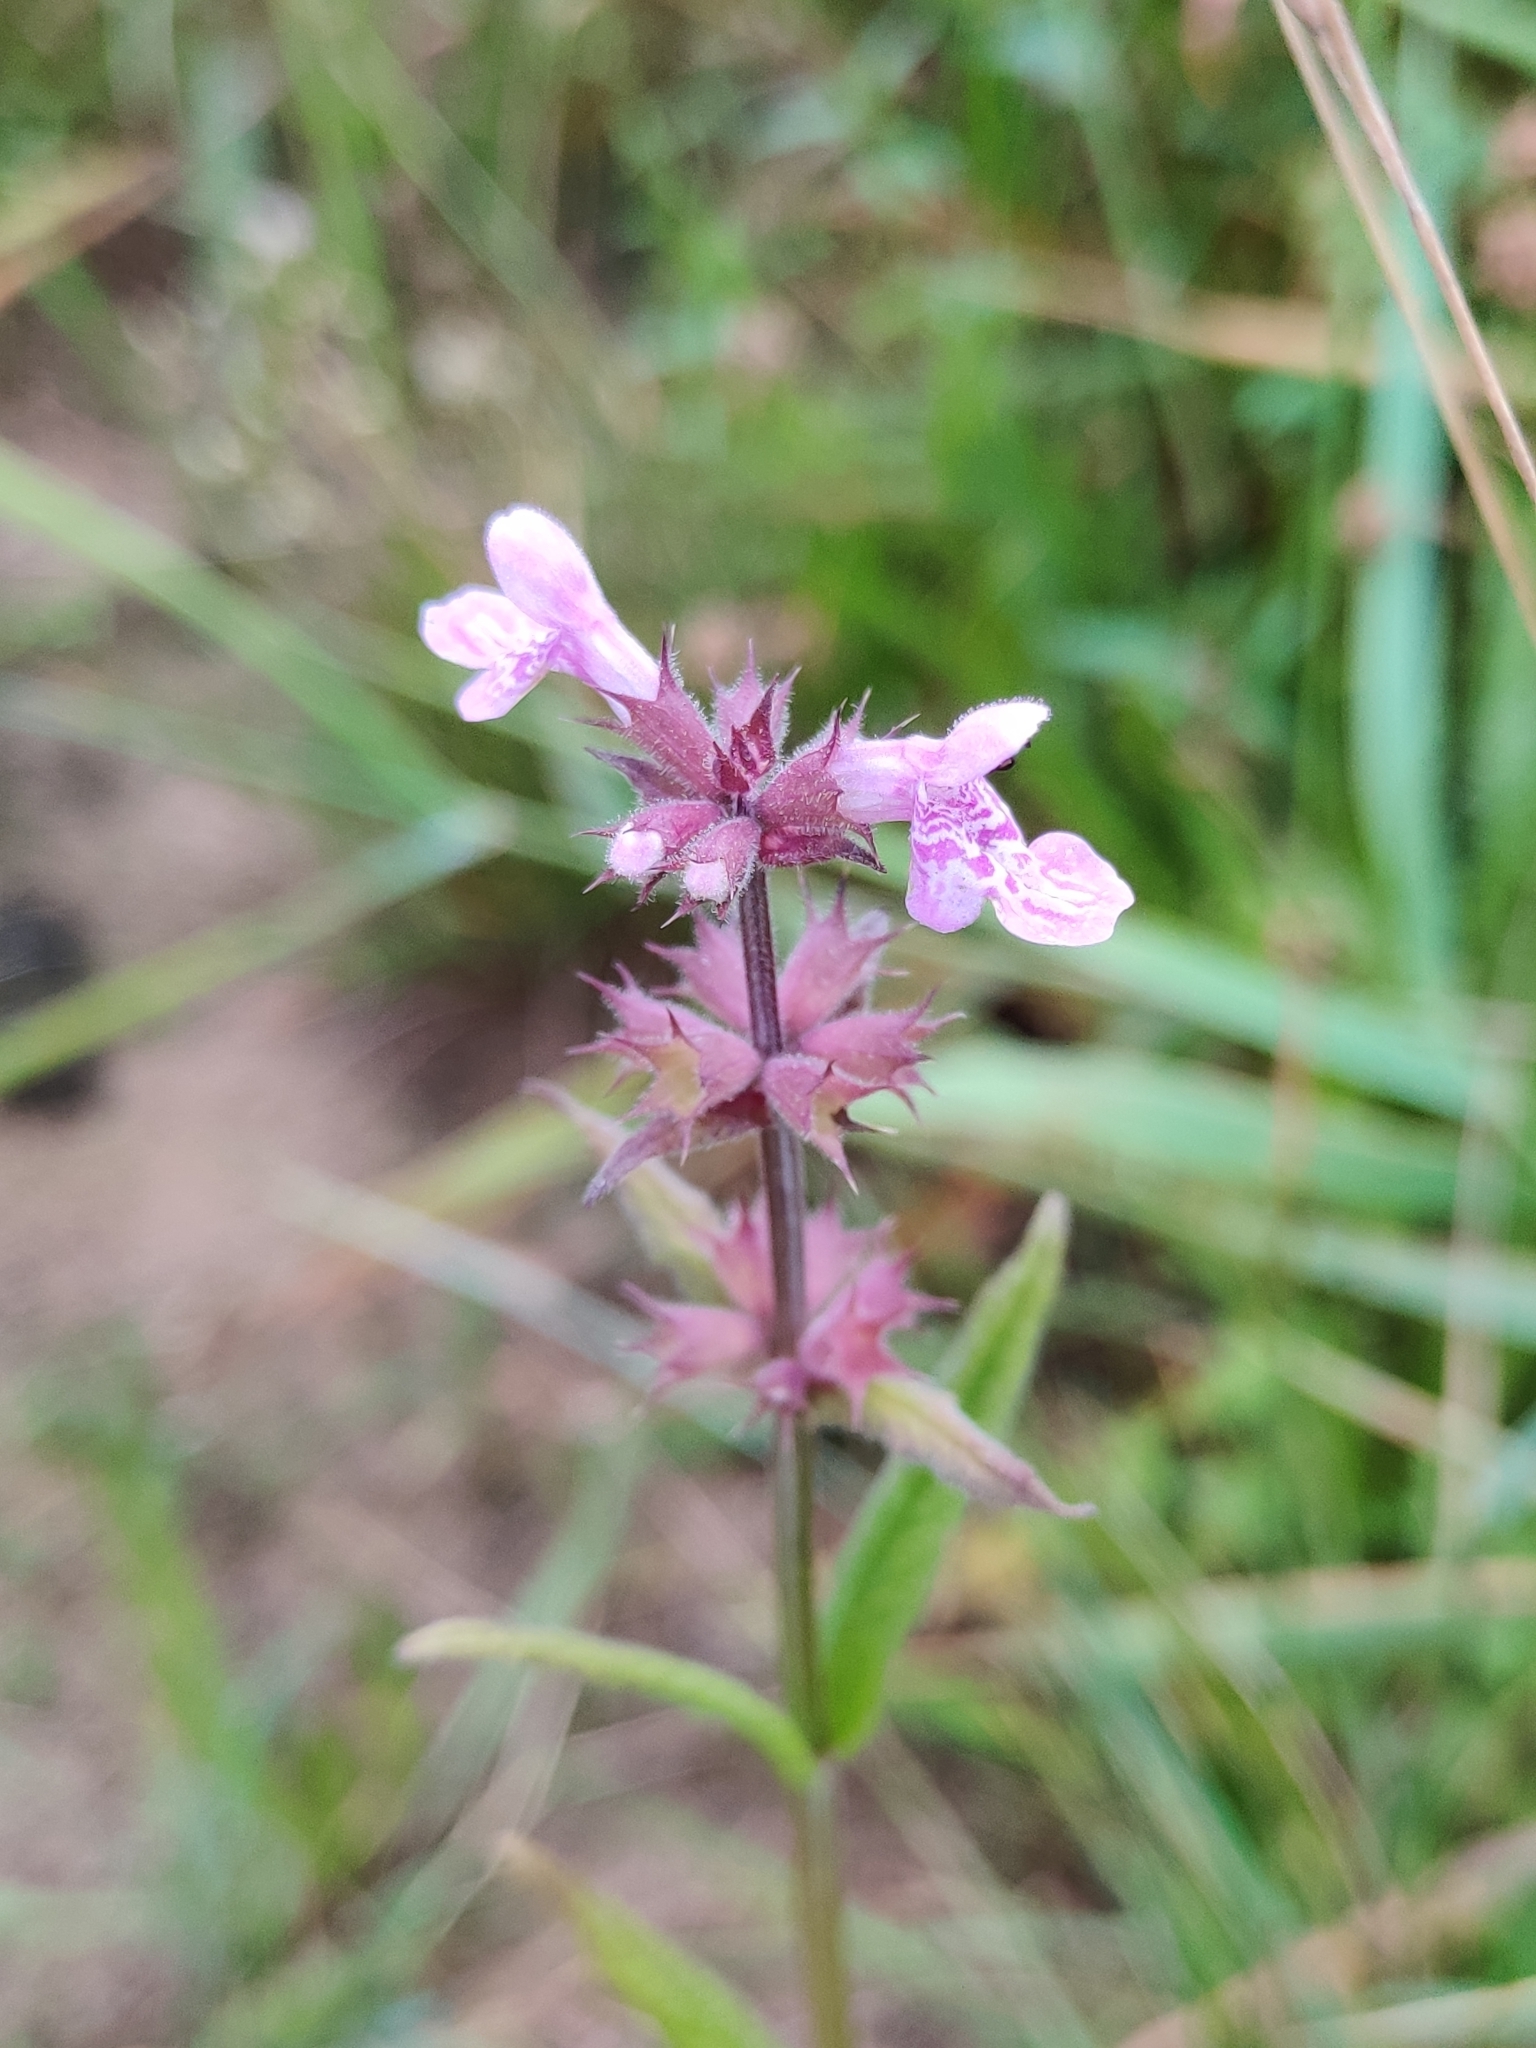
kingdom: Plantae
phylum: Tracheophyta
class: Magnoliopsida
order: Lamiales
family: Lamiaceae
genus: Stachys
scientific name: Stachys palustris
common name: Marsh woundwort
